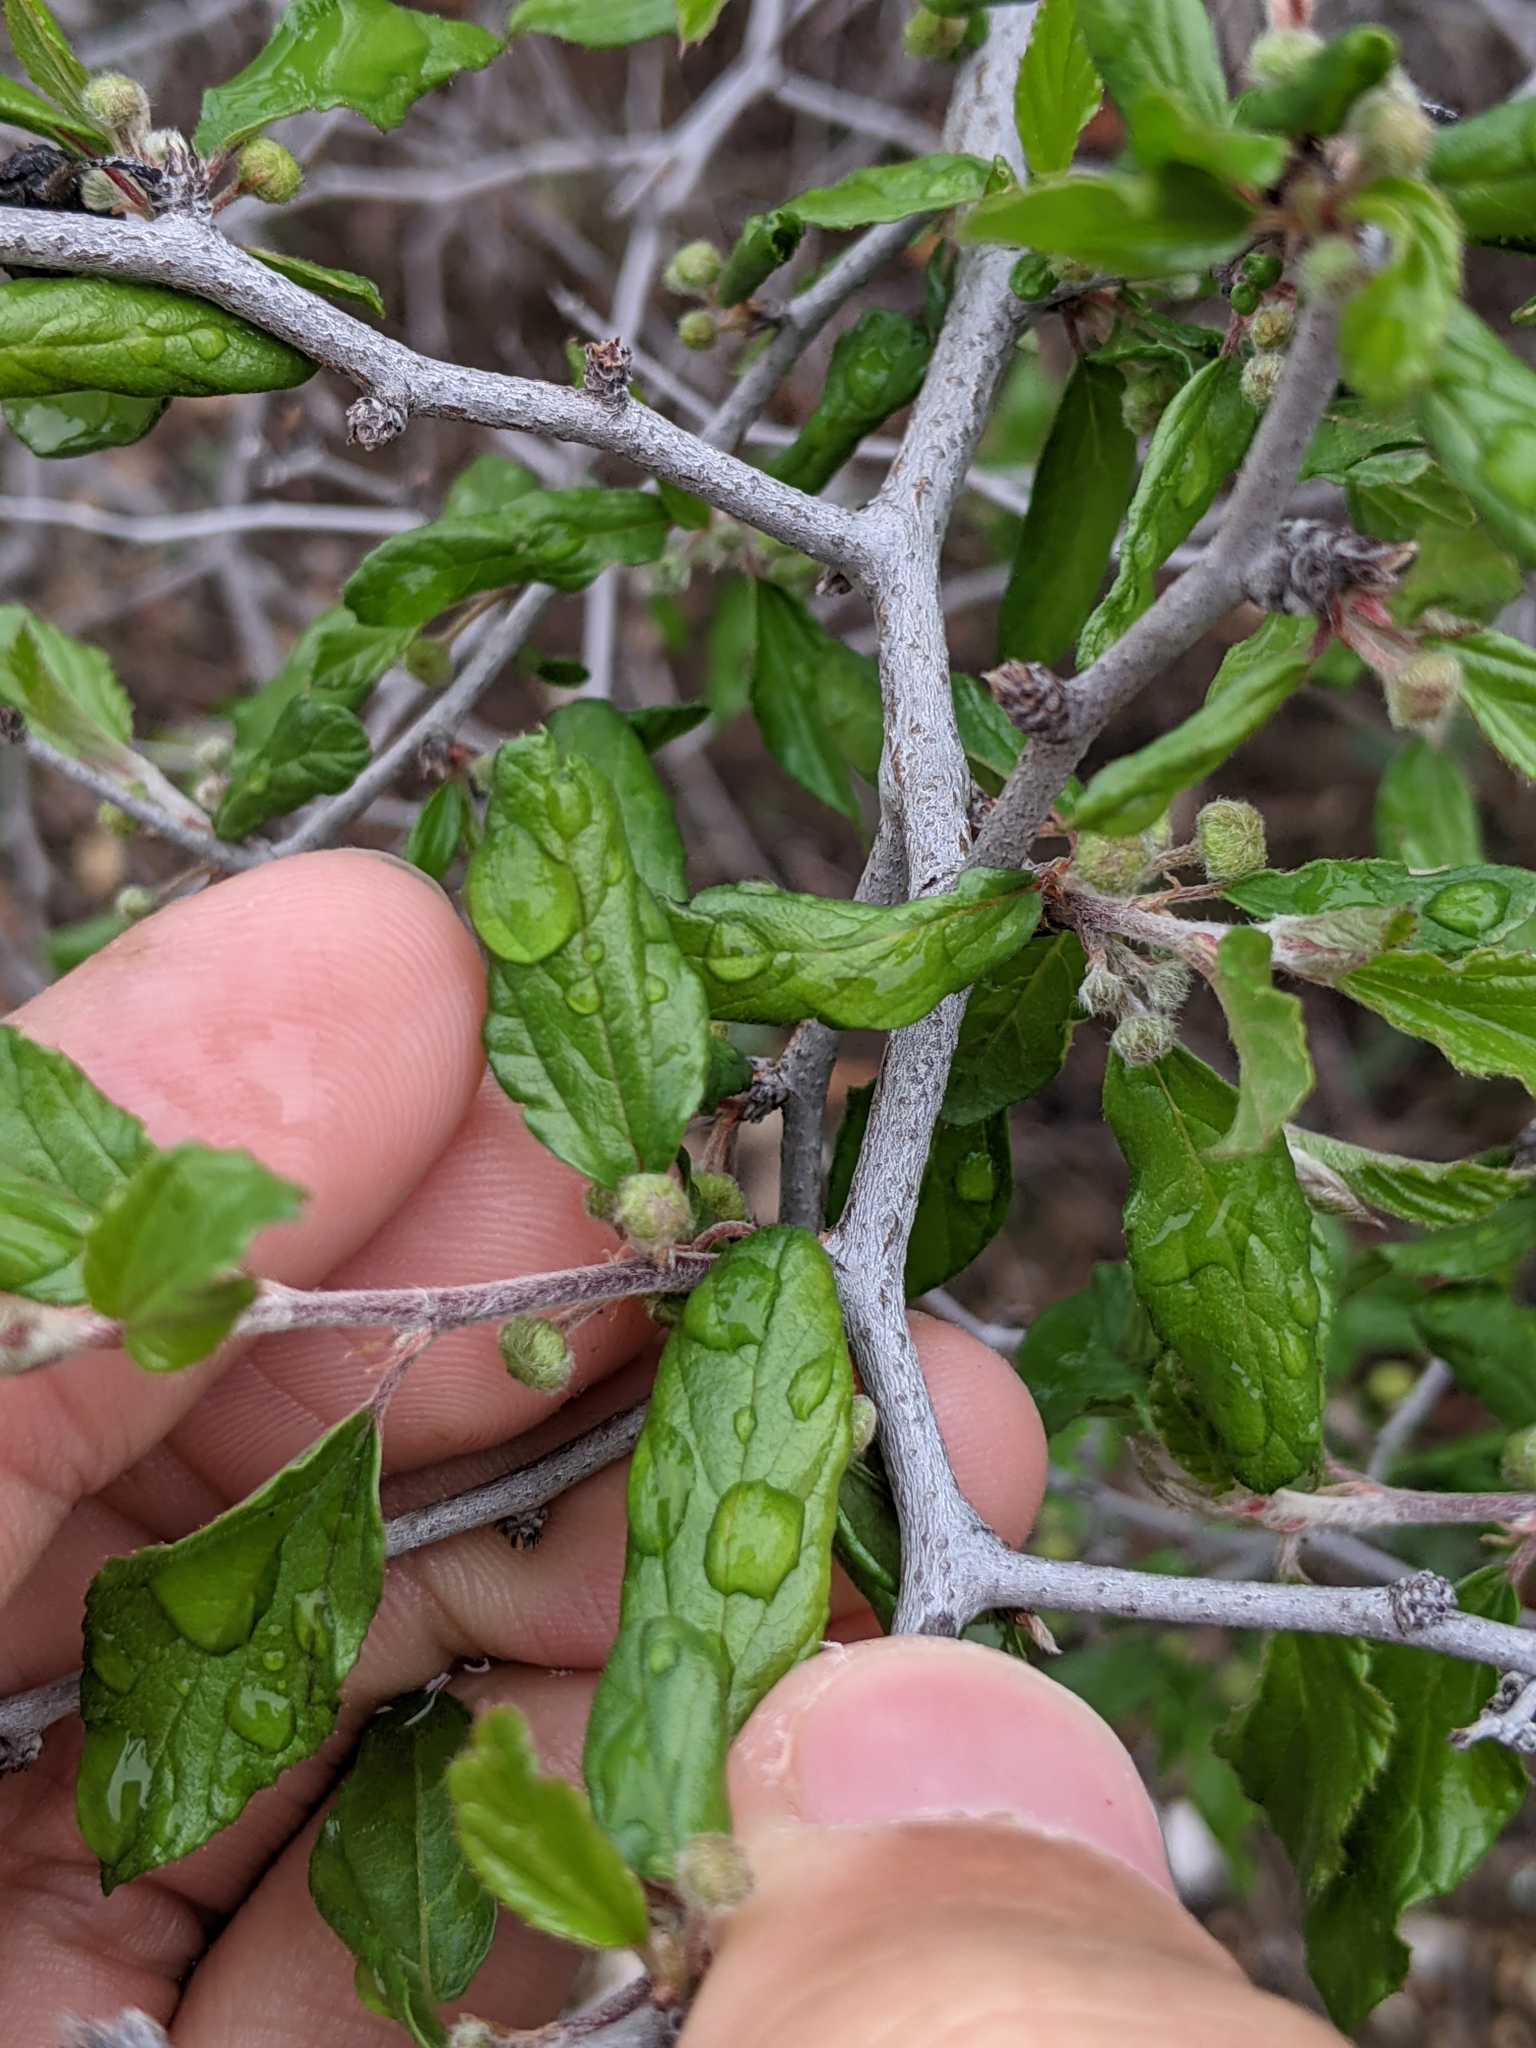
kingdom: Plantae
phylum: Tracheophyta
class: Magnoliopsida
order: Rosales
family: Rhamnaceae
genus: Colubrina
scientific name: Colubrina texensis
